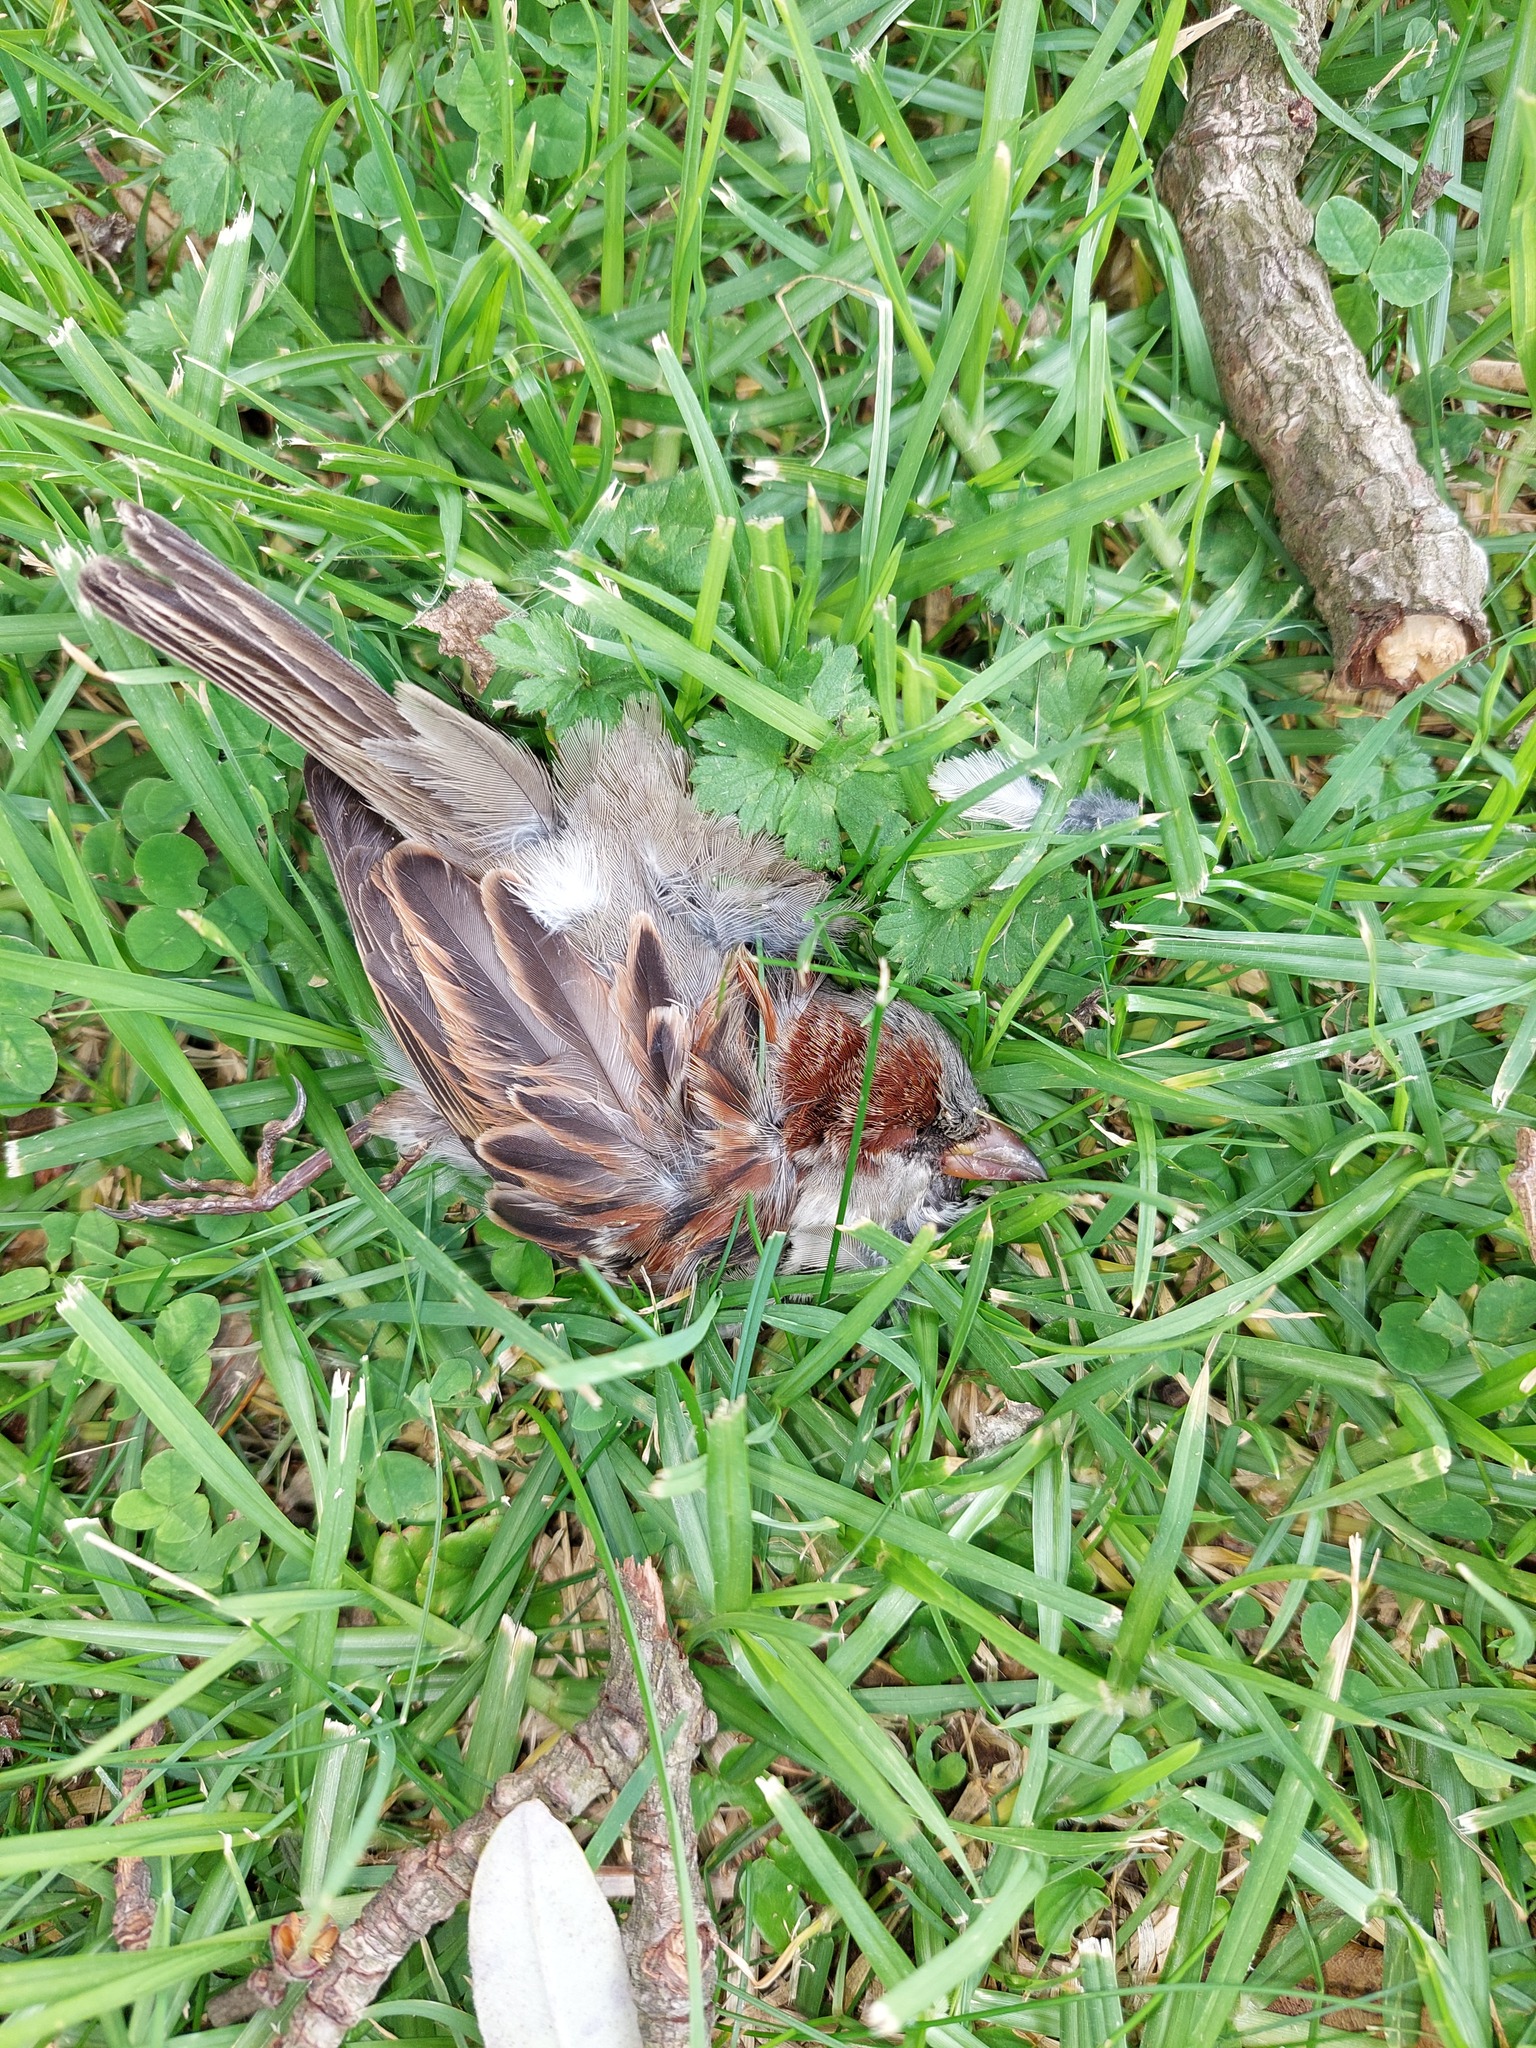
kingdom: Animalia
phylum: Chordata
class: Aves
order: Passeriformes
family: Passeridae
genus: Passer
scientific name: Passer domesticus
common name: House sparrow
